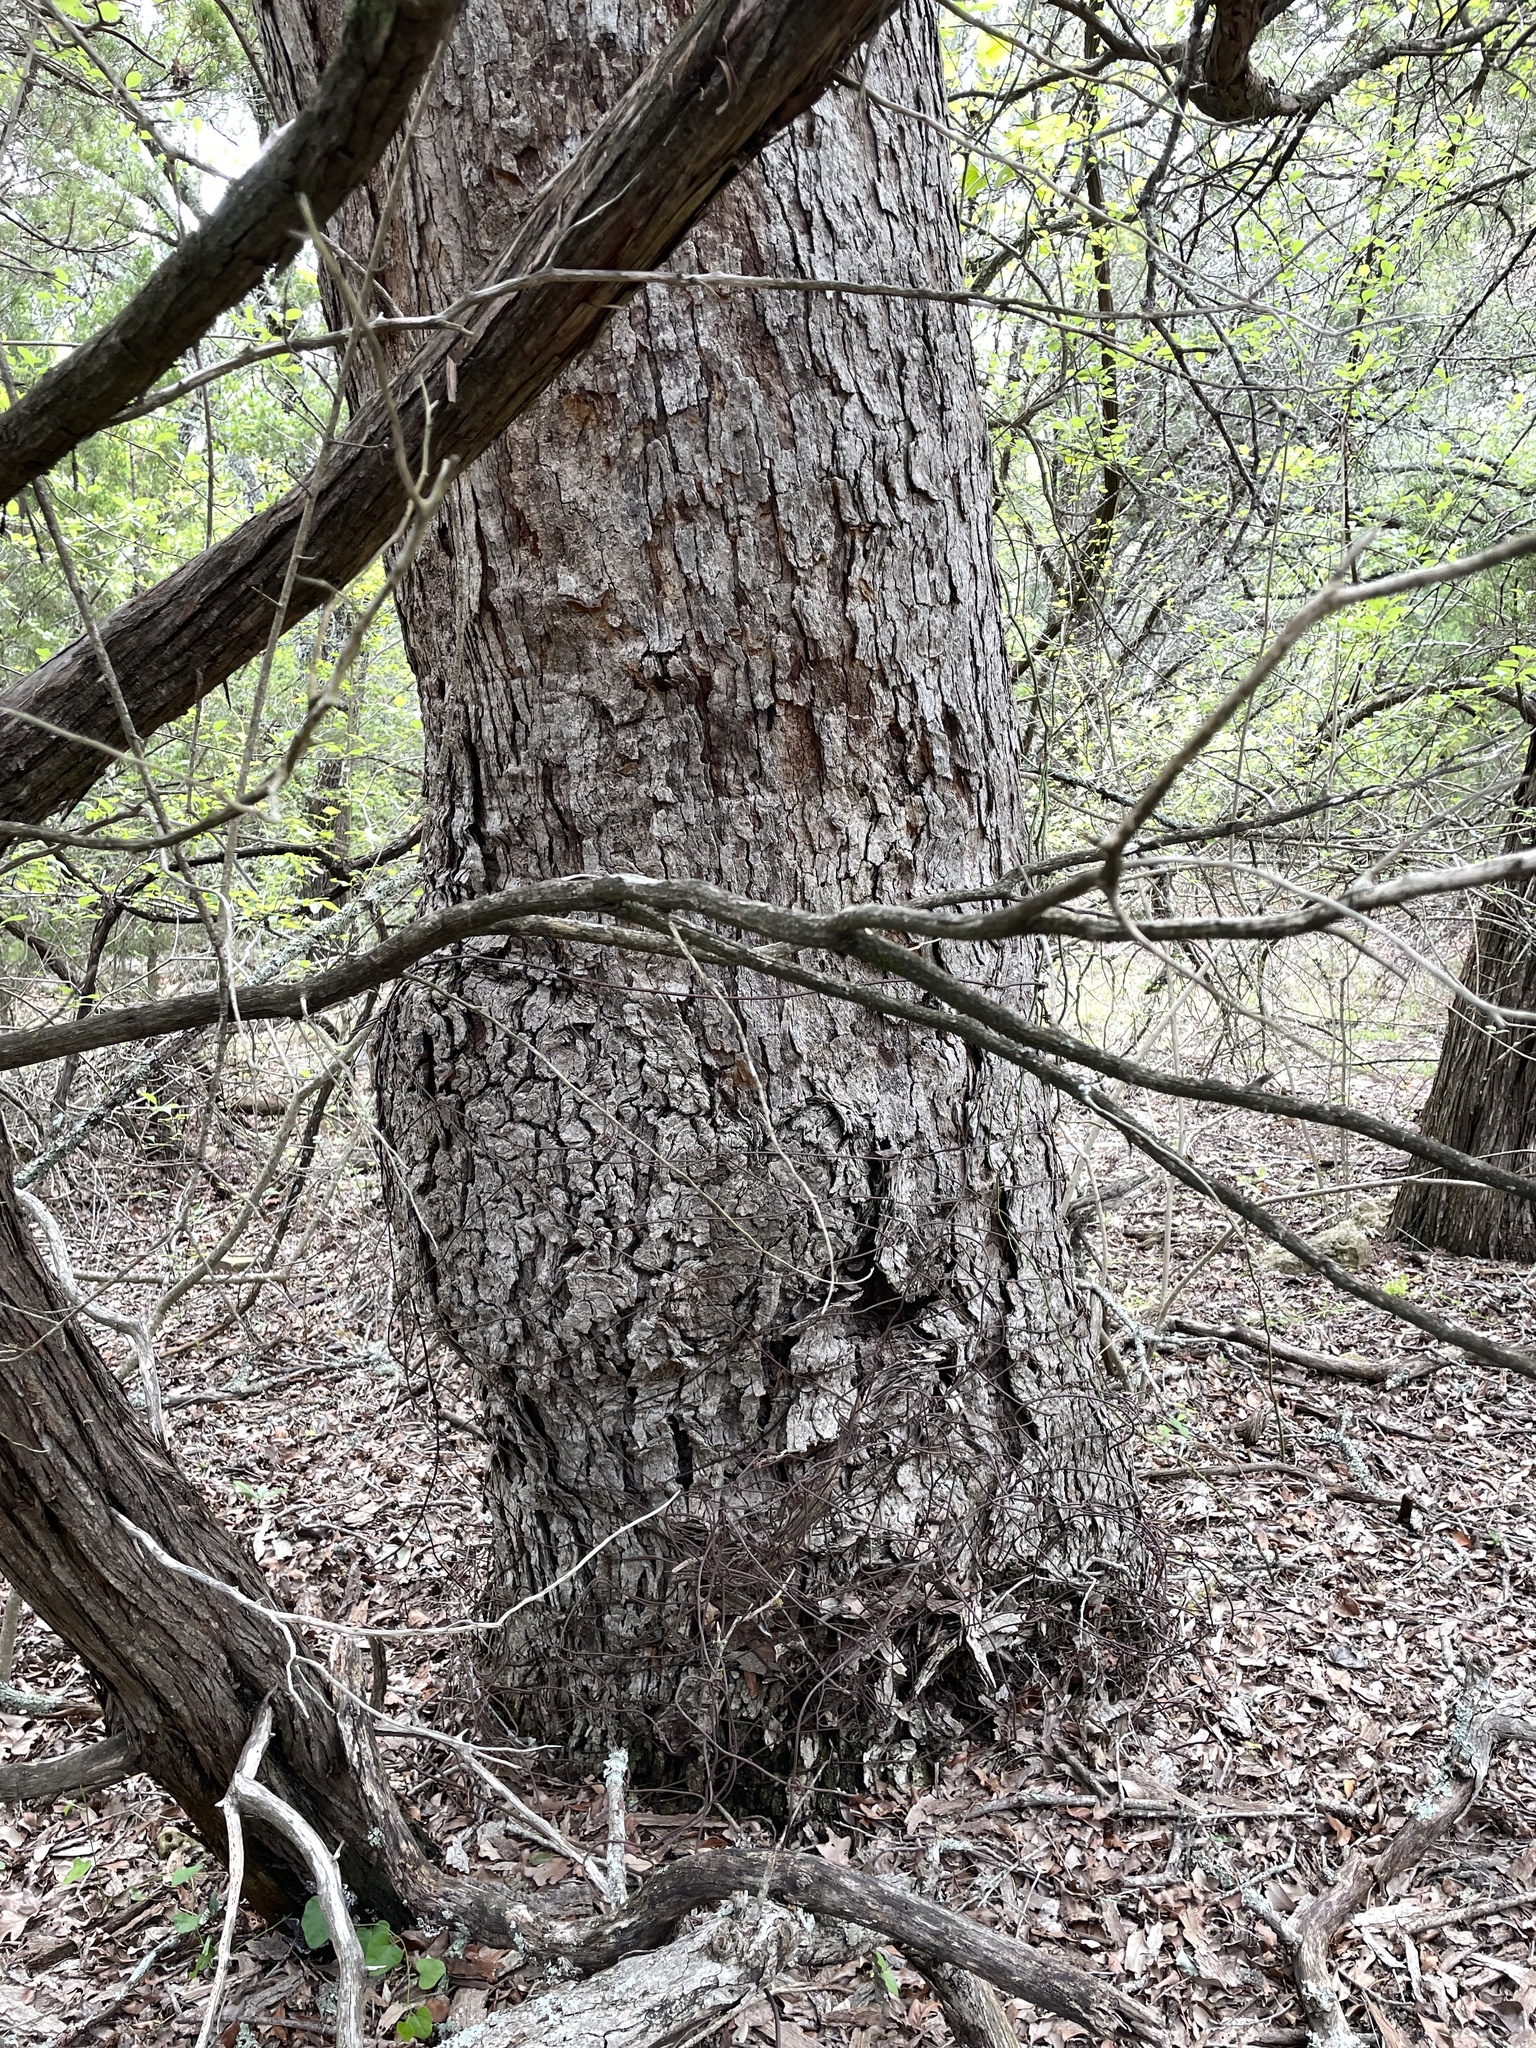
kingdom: Plantae
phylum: Tracheophyta
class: Magnoliopsida
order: Fagales
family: Fagaceae
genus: Quercus
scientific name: Quercus sinuata
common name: Durand oak
